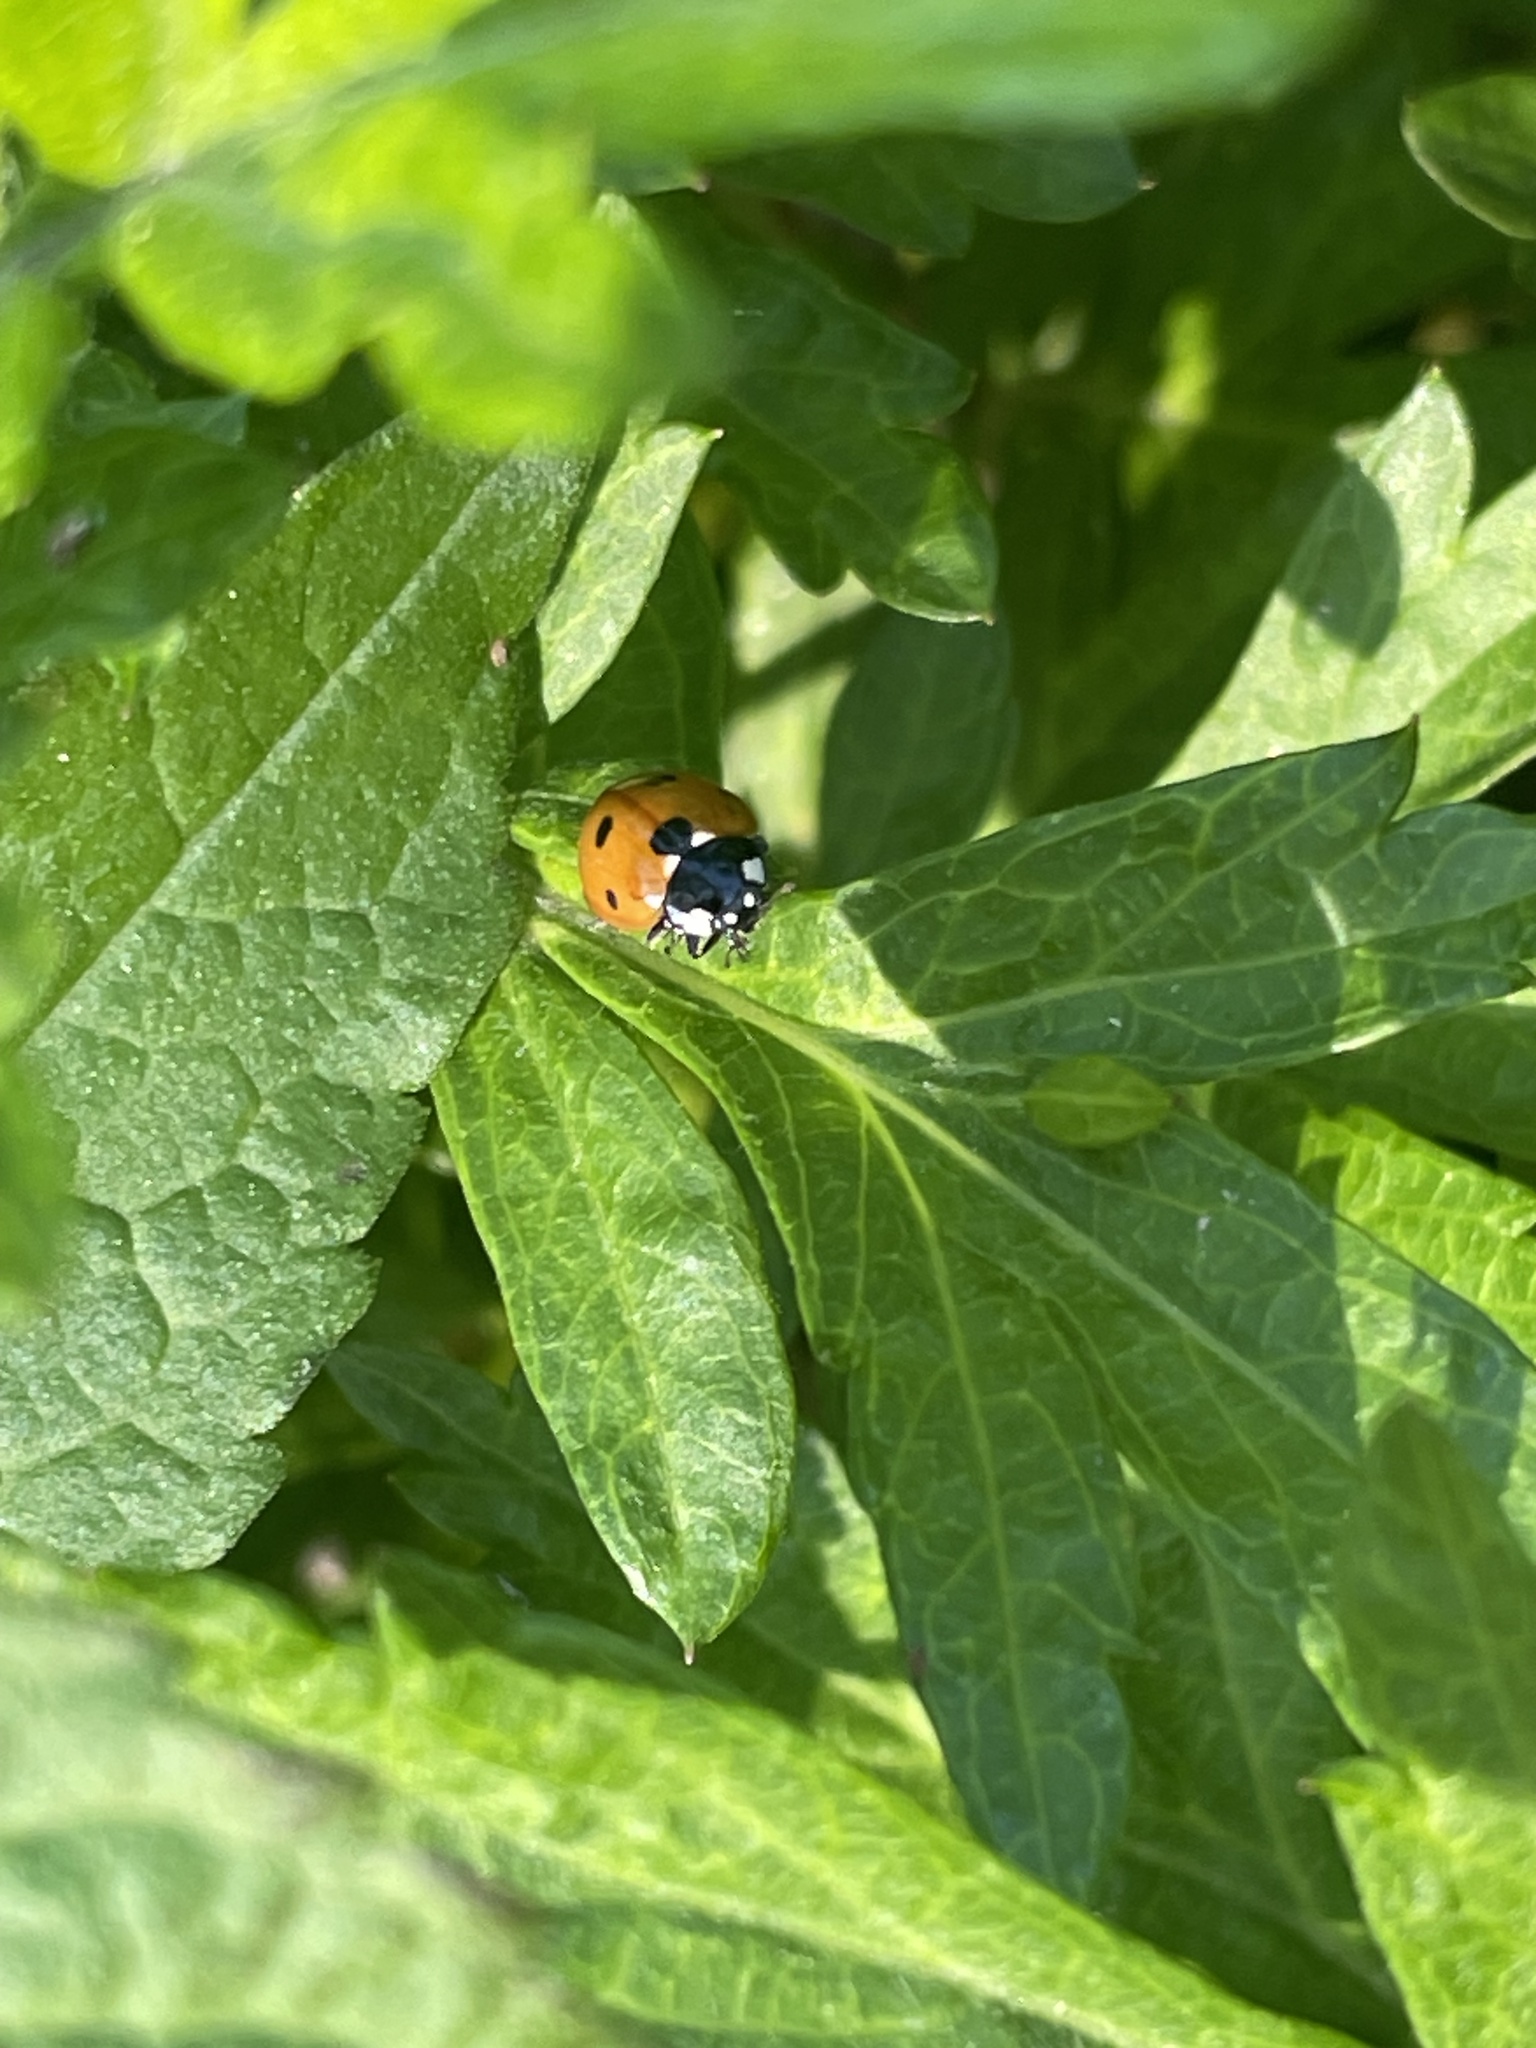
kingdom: Animalia
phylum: Arthropoda
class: Insecta
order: Coleoptera
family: Coccinellidae
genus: Coccinella
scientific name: Coccinella septempunctata
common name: Sevenspotted lady beetle
